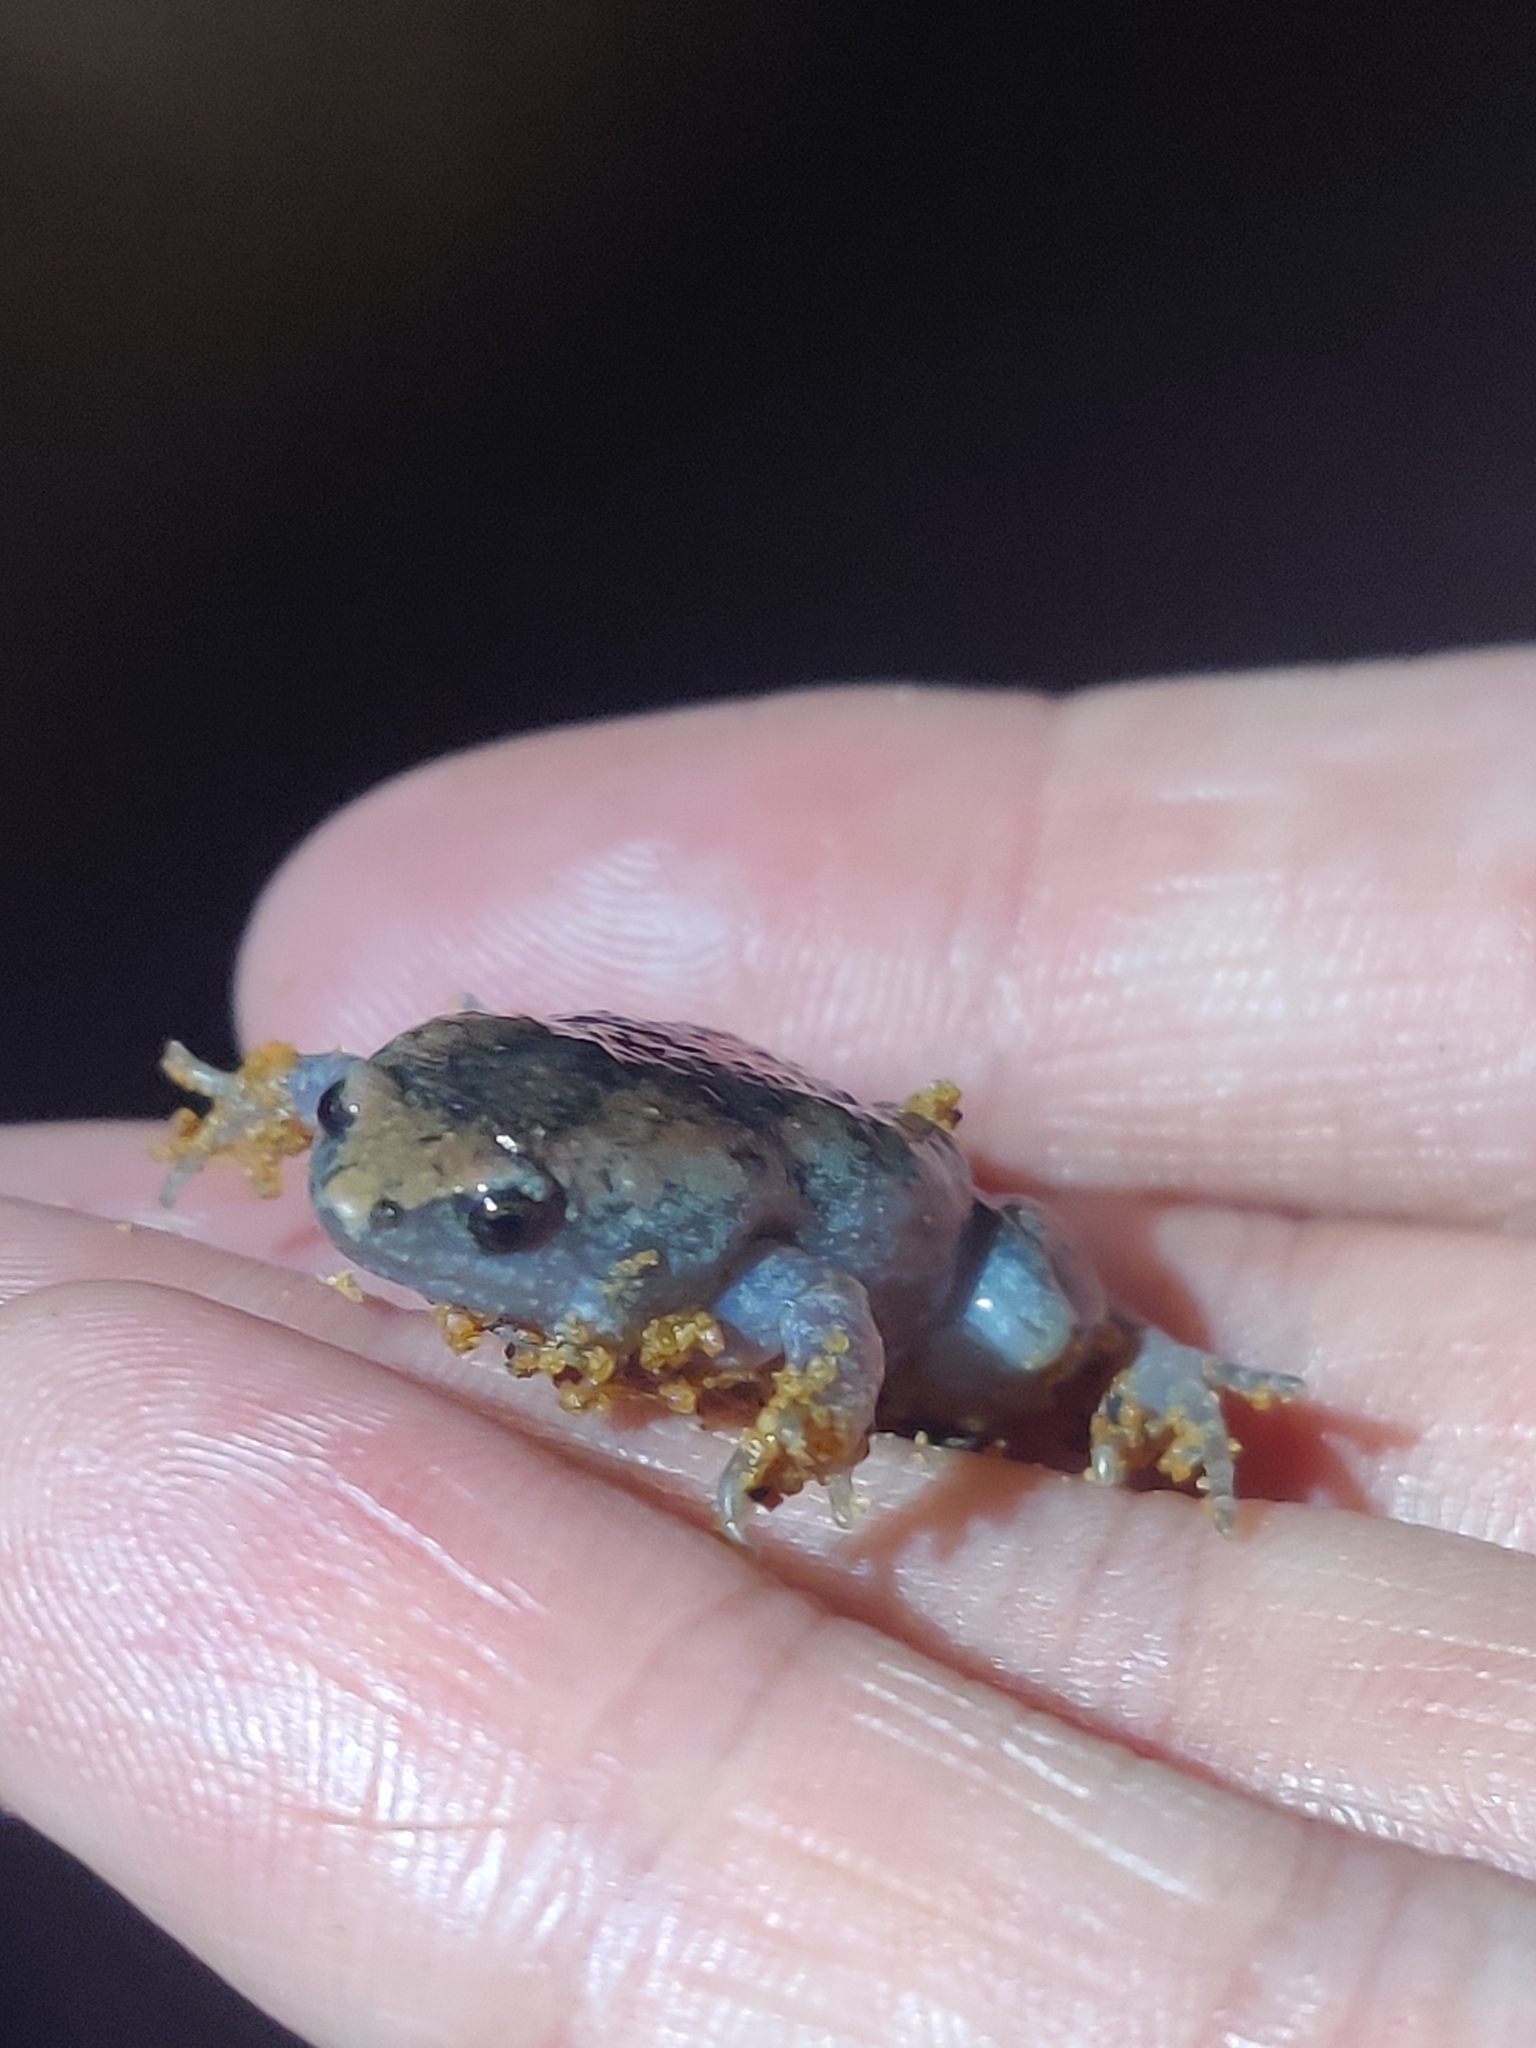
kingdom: Animalia
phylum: Chordata
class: Amphibia
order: Anura
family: Microhylidae
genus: Gastrophryne
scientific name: Gastrophryne carolinensis
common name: Eastern narrowmouth toad
